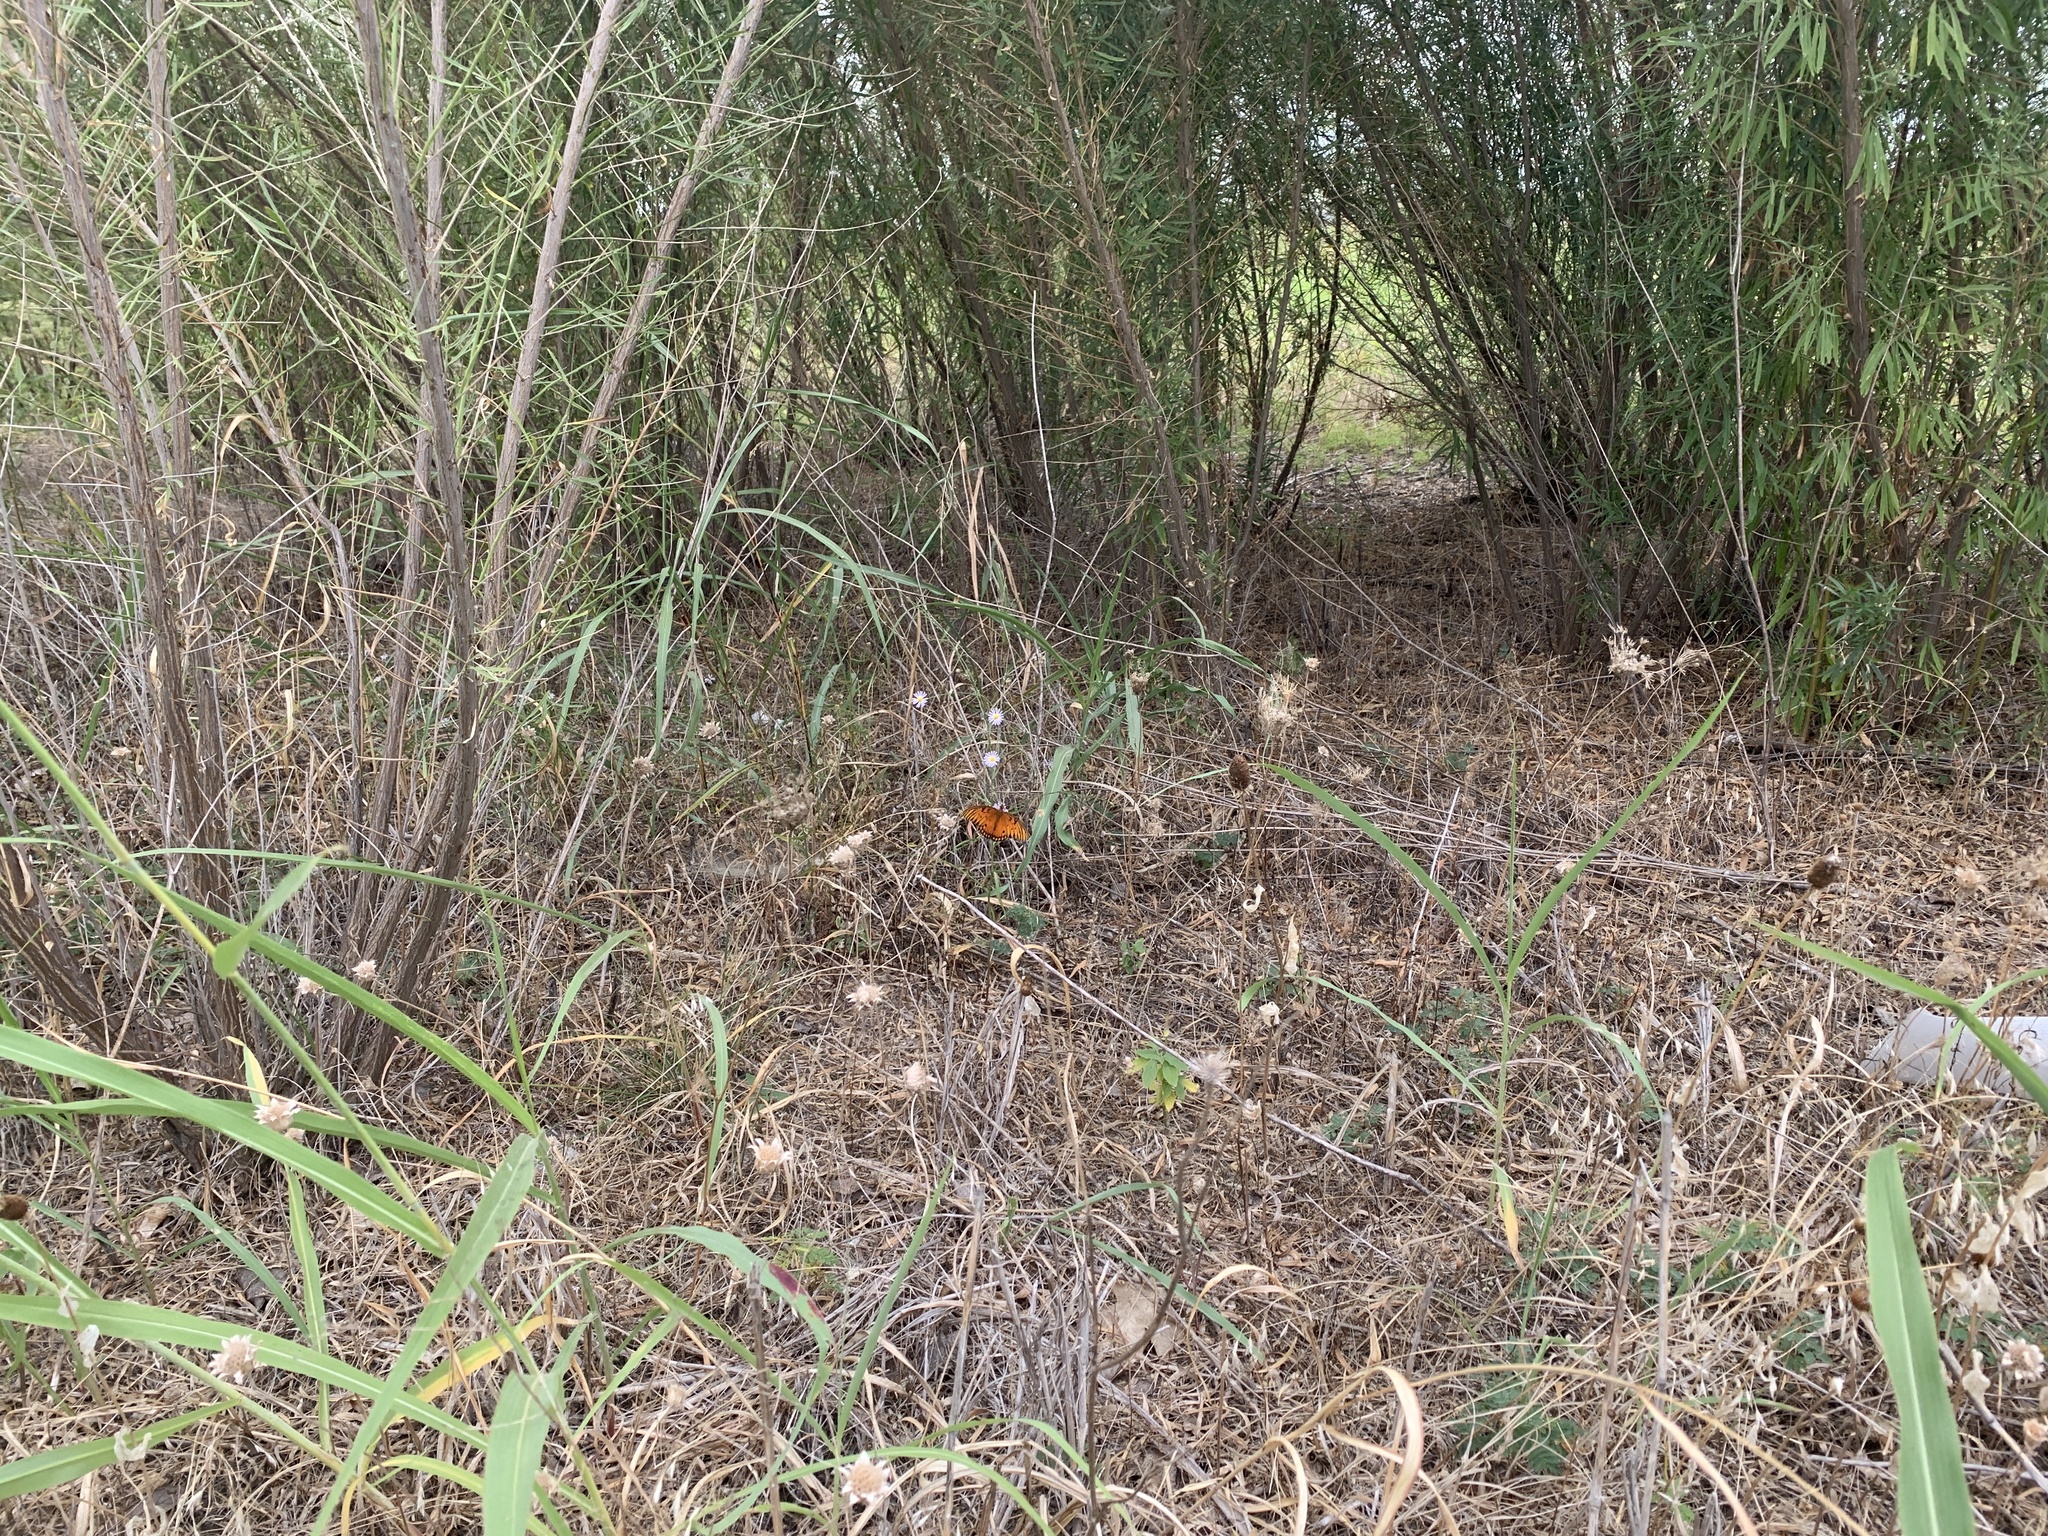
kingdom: Animalia
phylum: Arthropoda
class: Insecta
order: Lepidoptera
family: Nymphalidae
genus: Dione
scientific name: Dione vanillae
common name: Gulf fritillary
